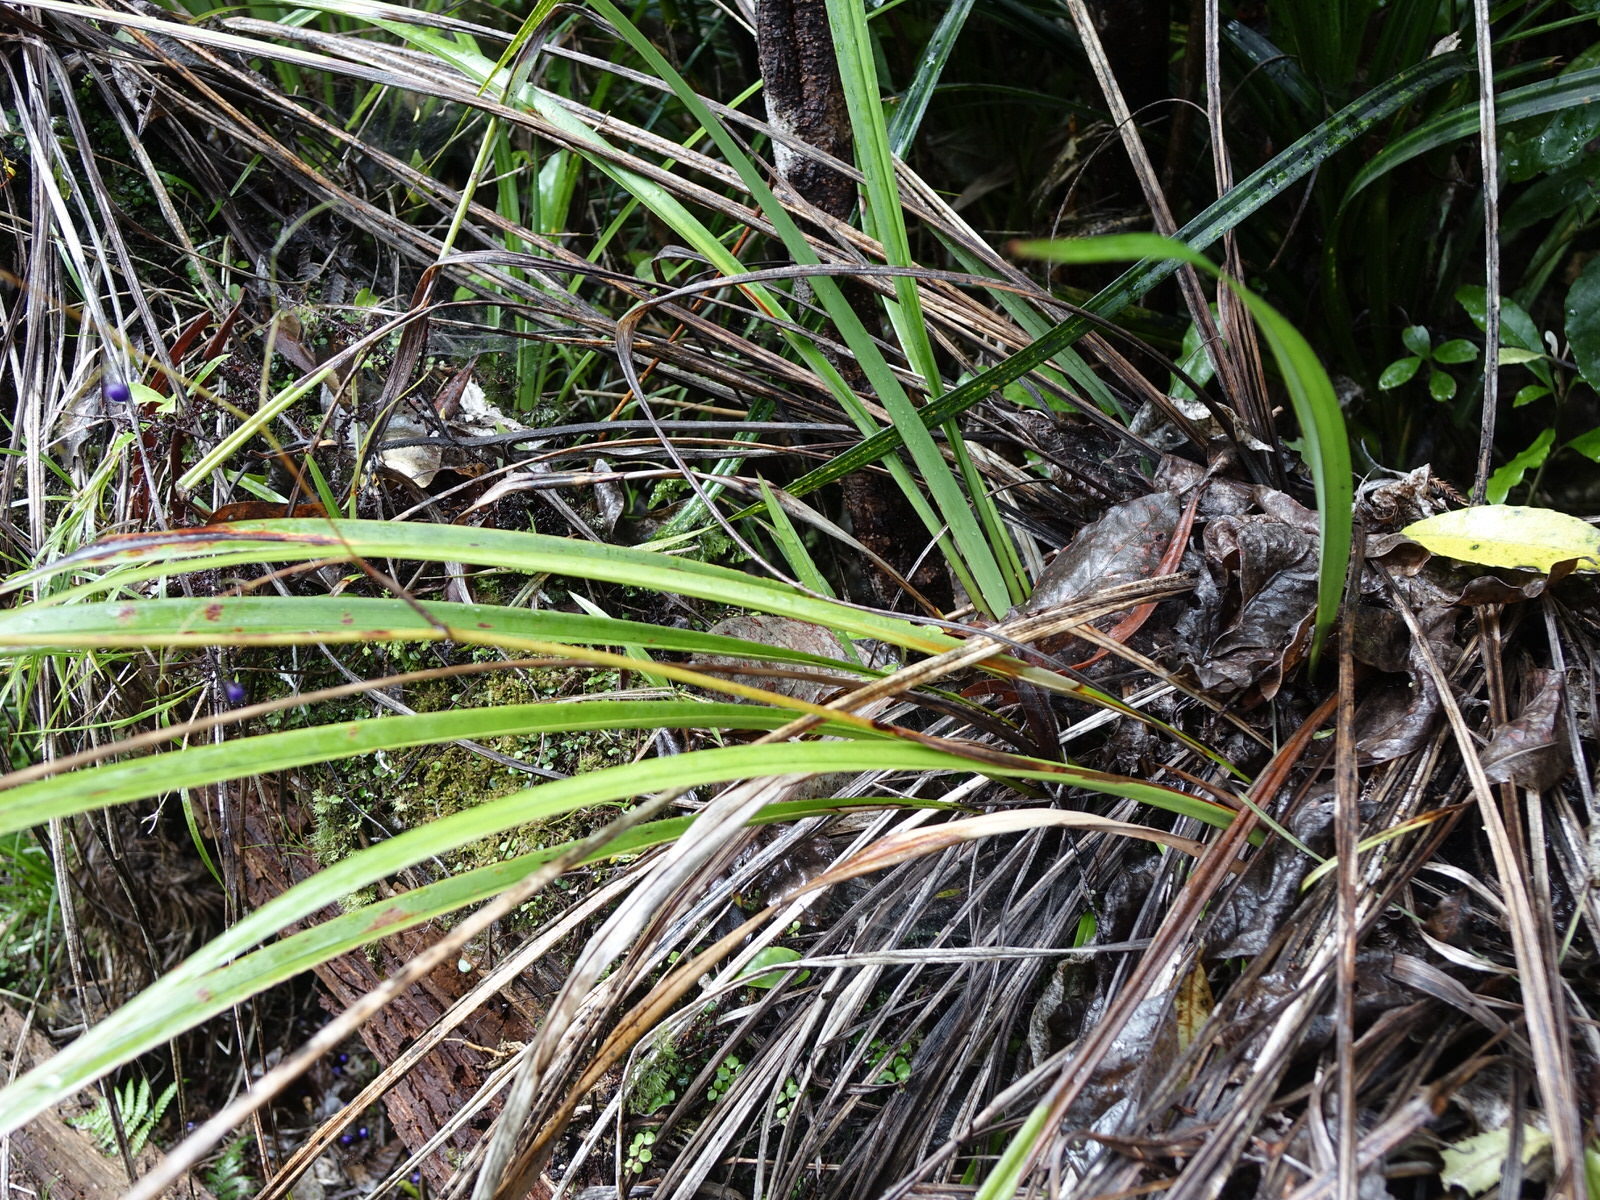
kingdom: Plantae
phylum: Tracheophyta
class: Liliopsida
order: Asparagales
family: Asphodelaceae
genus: Dianella
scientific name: Dianella nigra
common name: New zealand-blueberry
